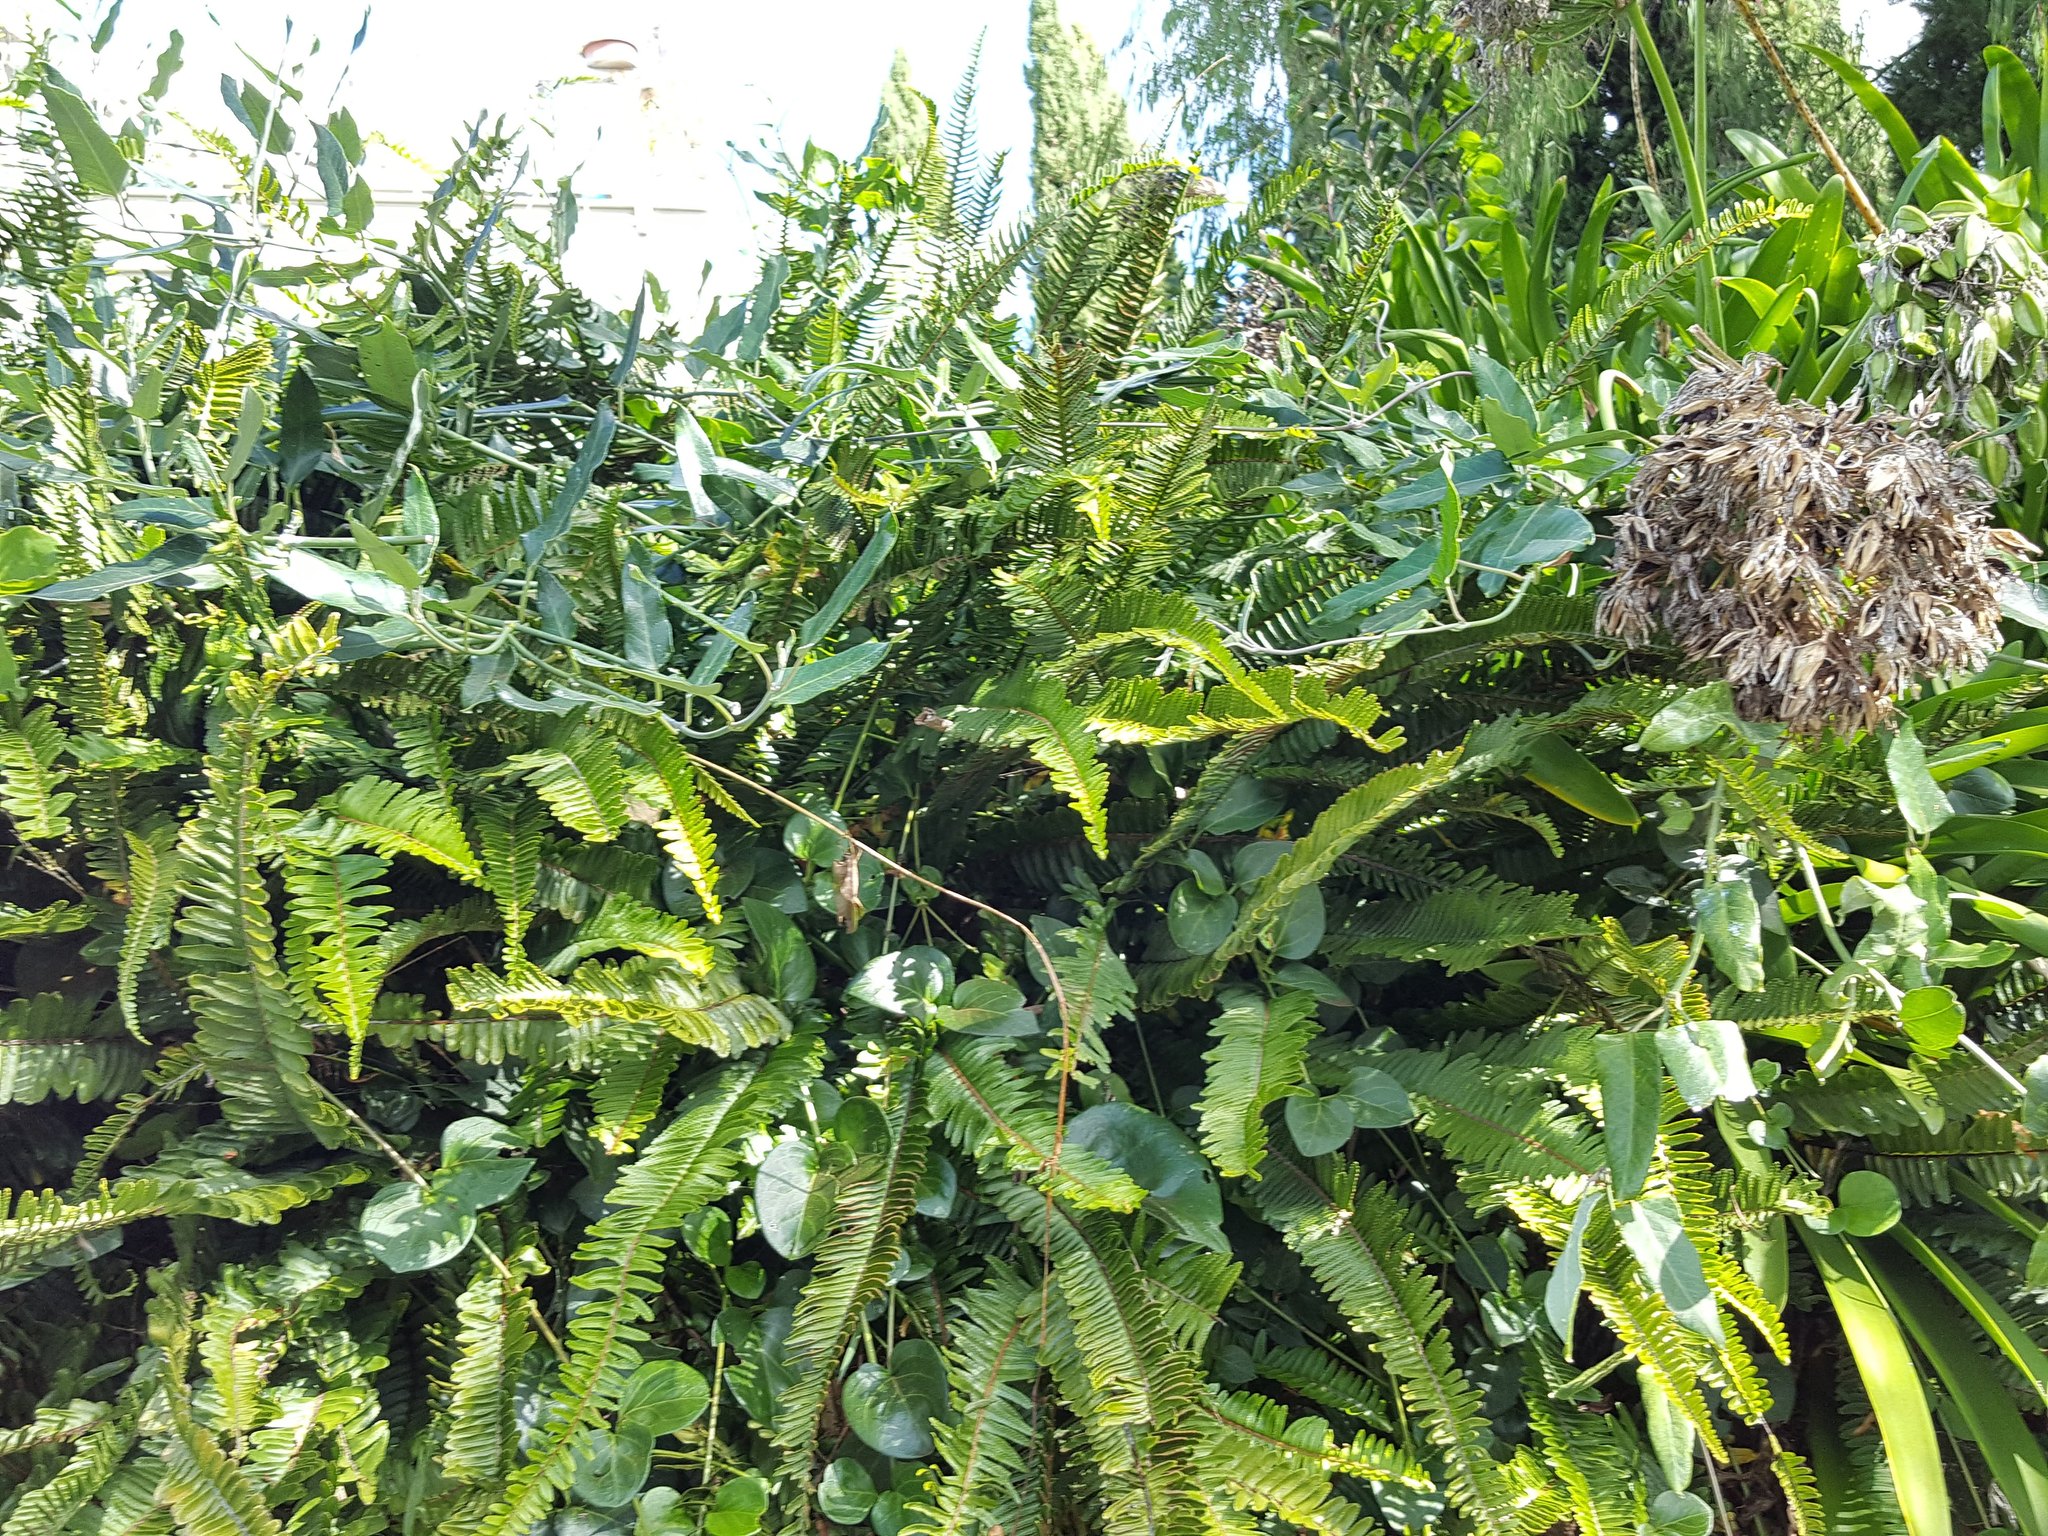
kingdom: Plantae
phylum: Tracheophyta
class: Magnoliopsida
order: Gentianales
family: Apocynaceae
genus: Araujia
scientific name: Araujia sericifera
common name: White bladderflower
